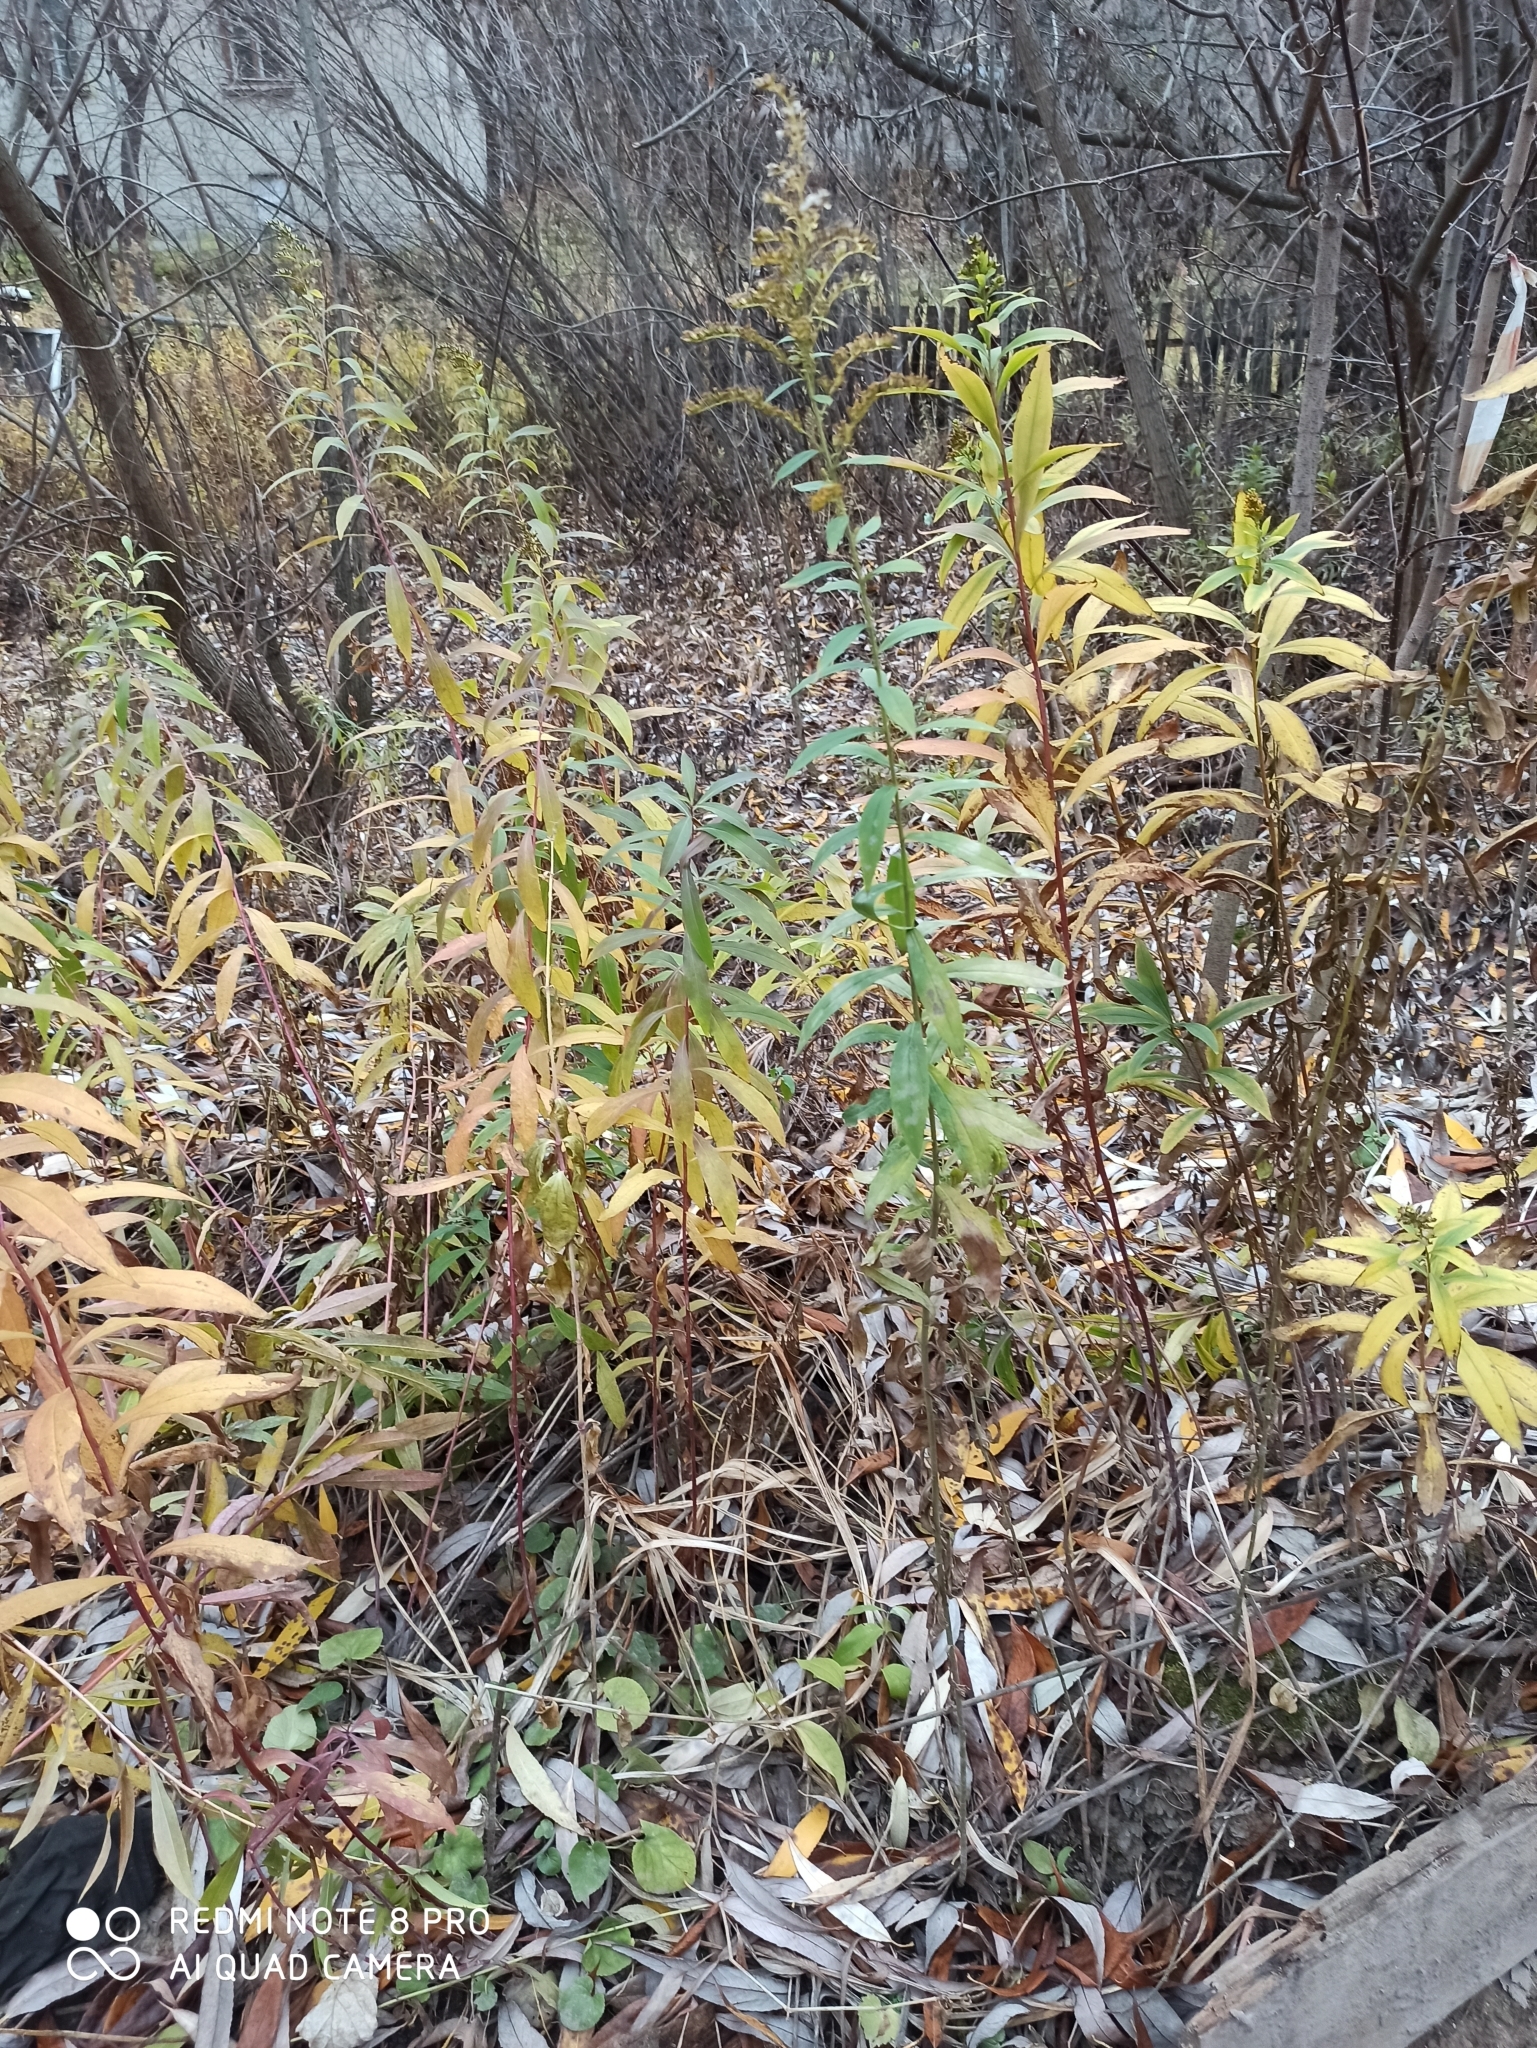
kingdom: Plantae
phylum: Tracheophyta
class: Magnoliopsida
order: Asterales
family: Asteraceae
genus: Solidago
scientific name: Solidago gigantea
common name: Giant goldenrod
